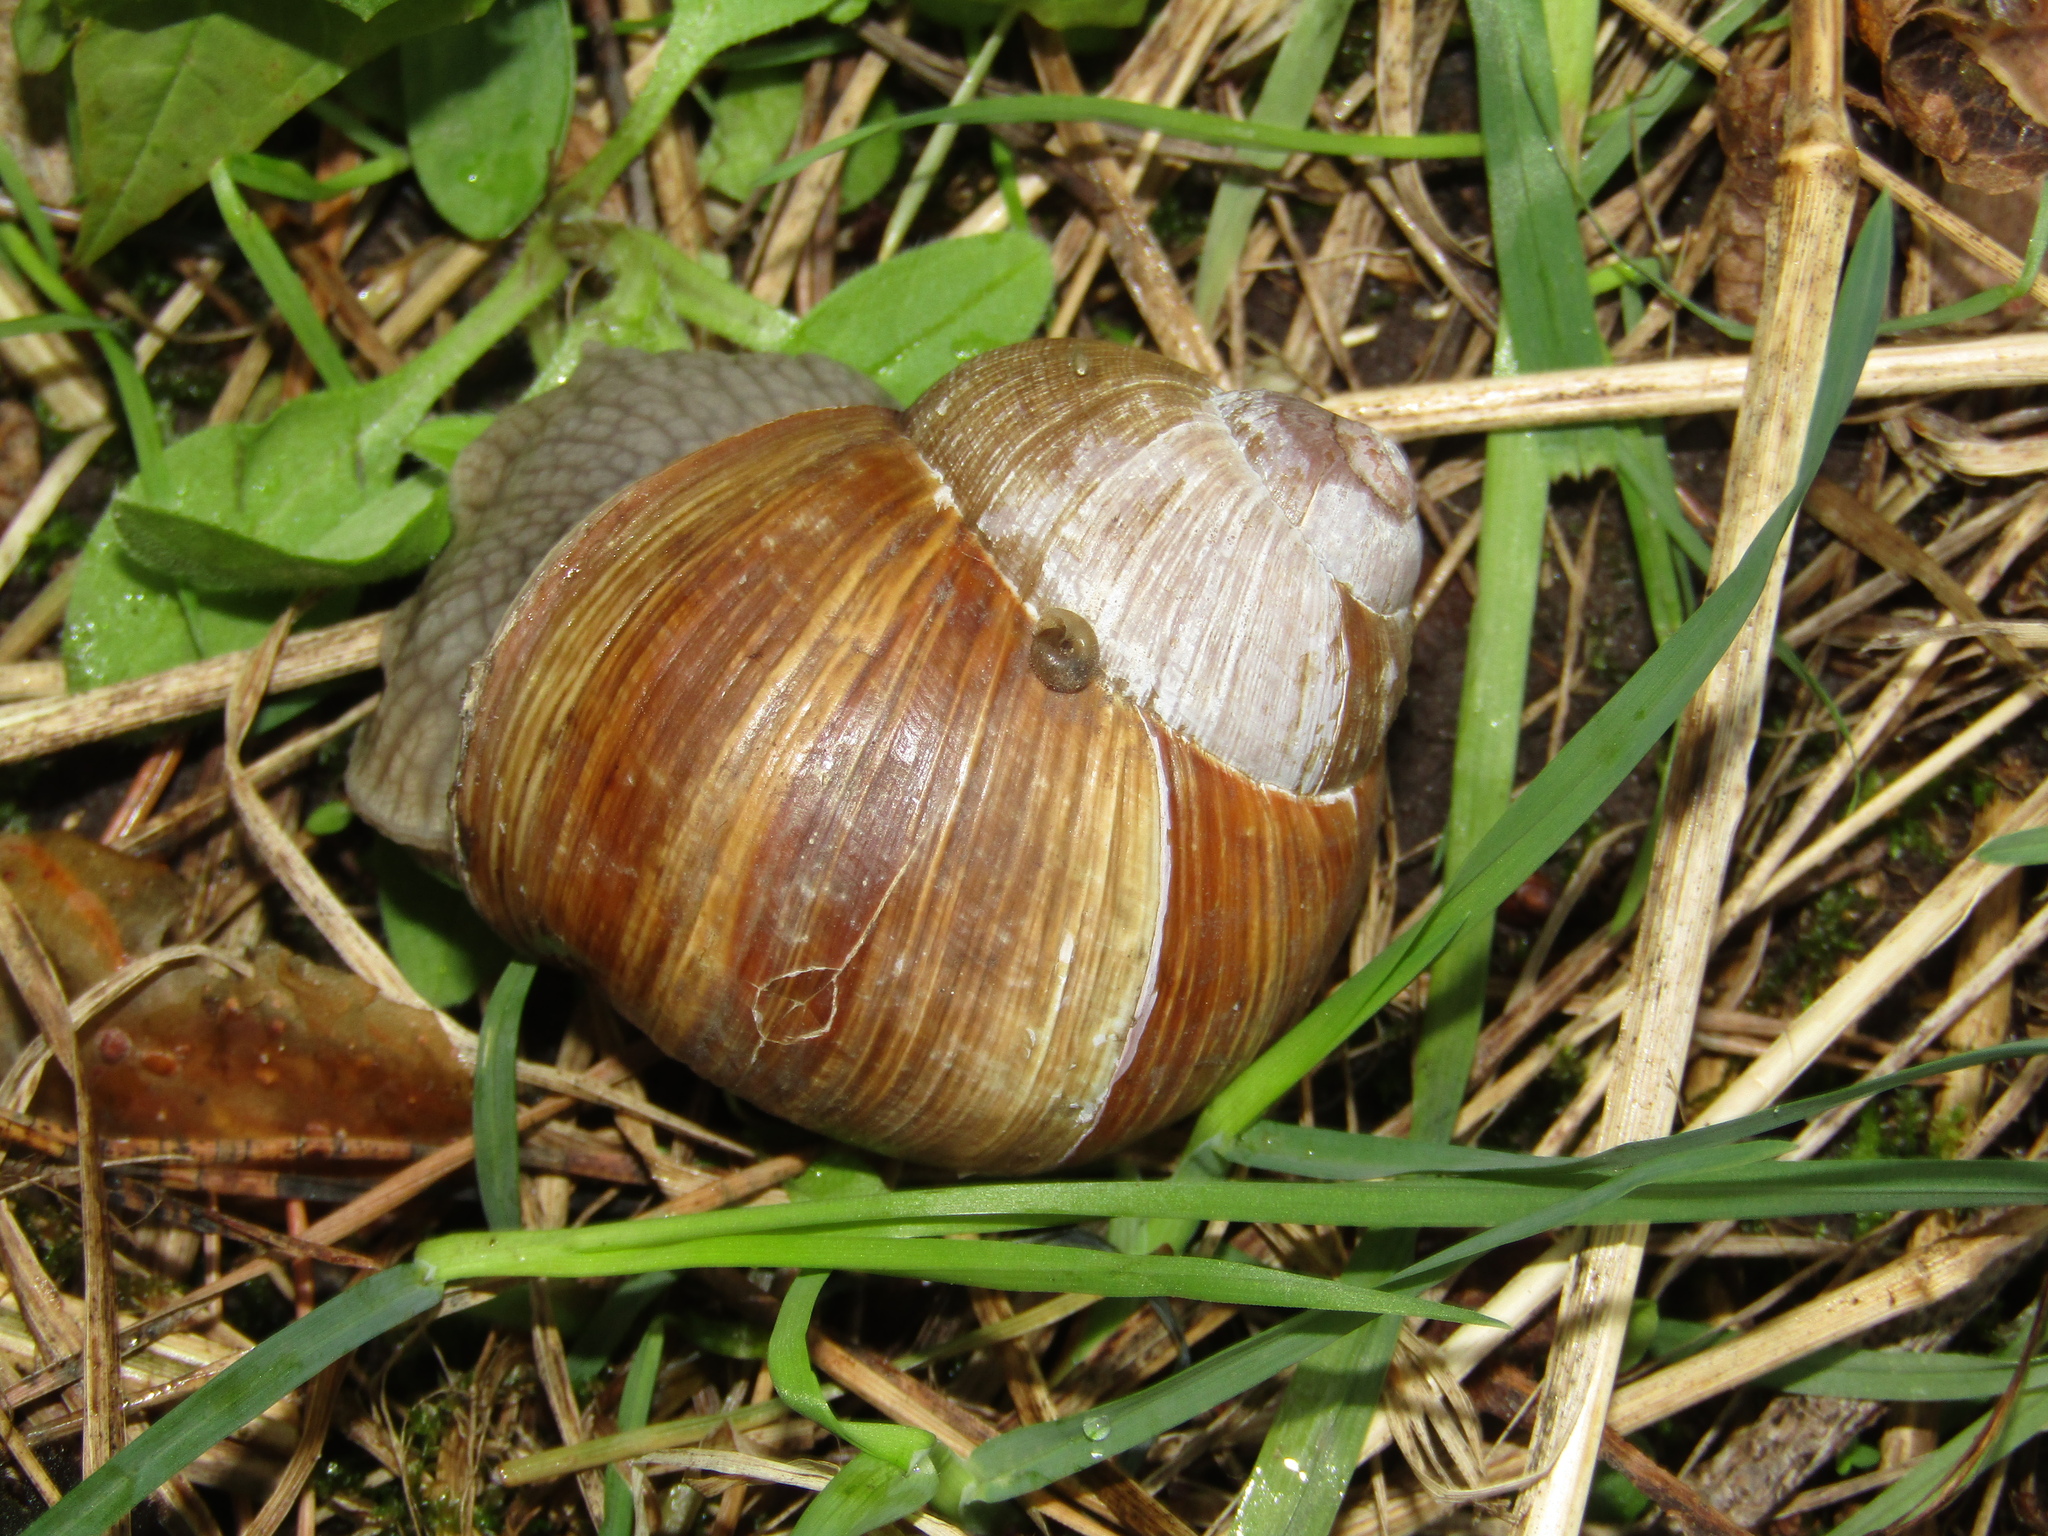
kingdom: Animalia
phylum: Mollusca
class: Gastropoda
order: Stylommatophora
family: Helicidae
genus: Helix
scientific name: Helix pomatia
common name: Roman snail
